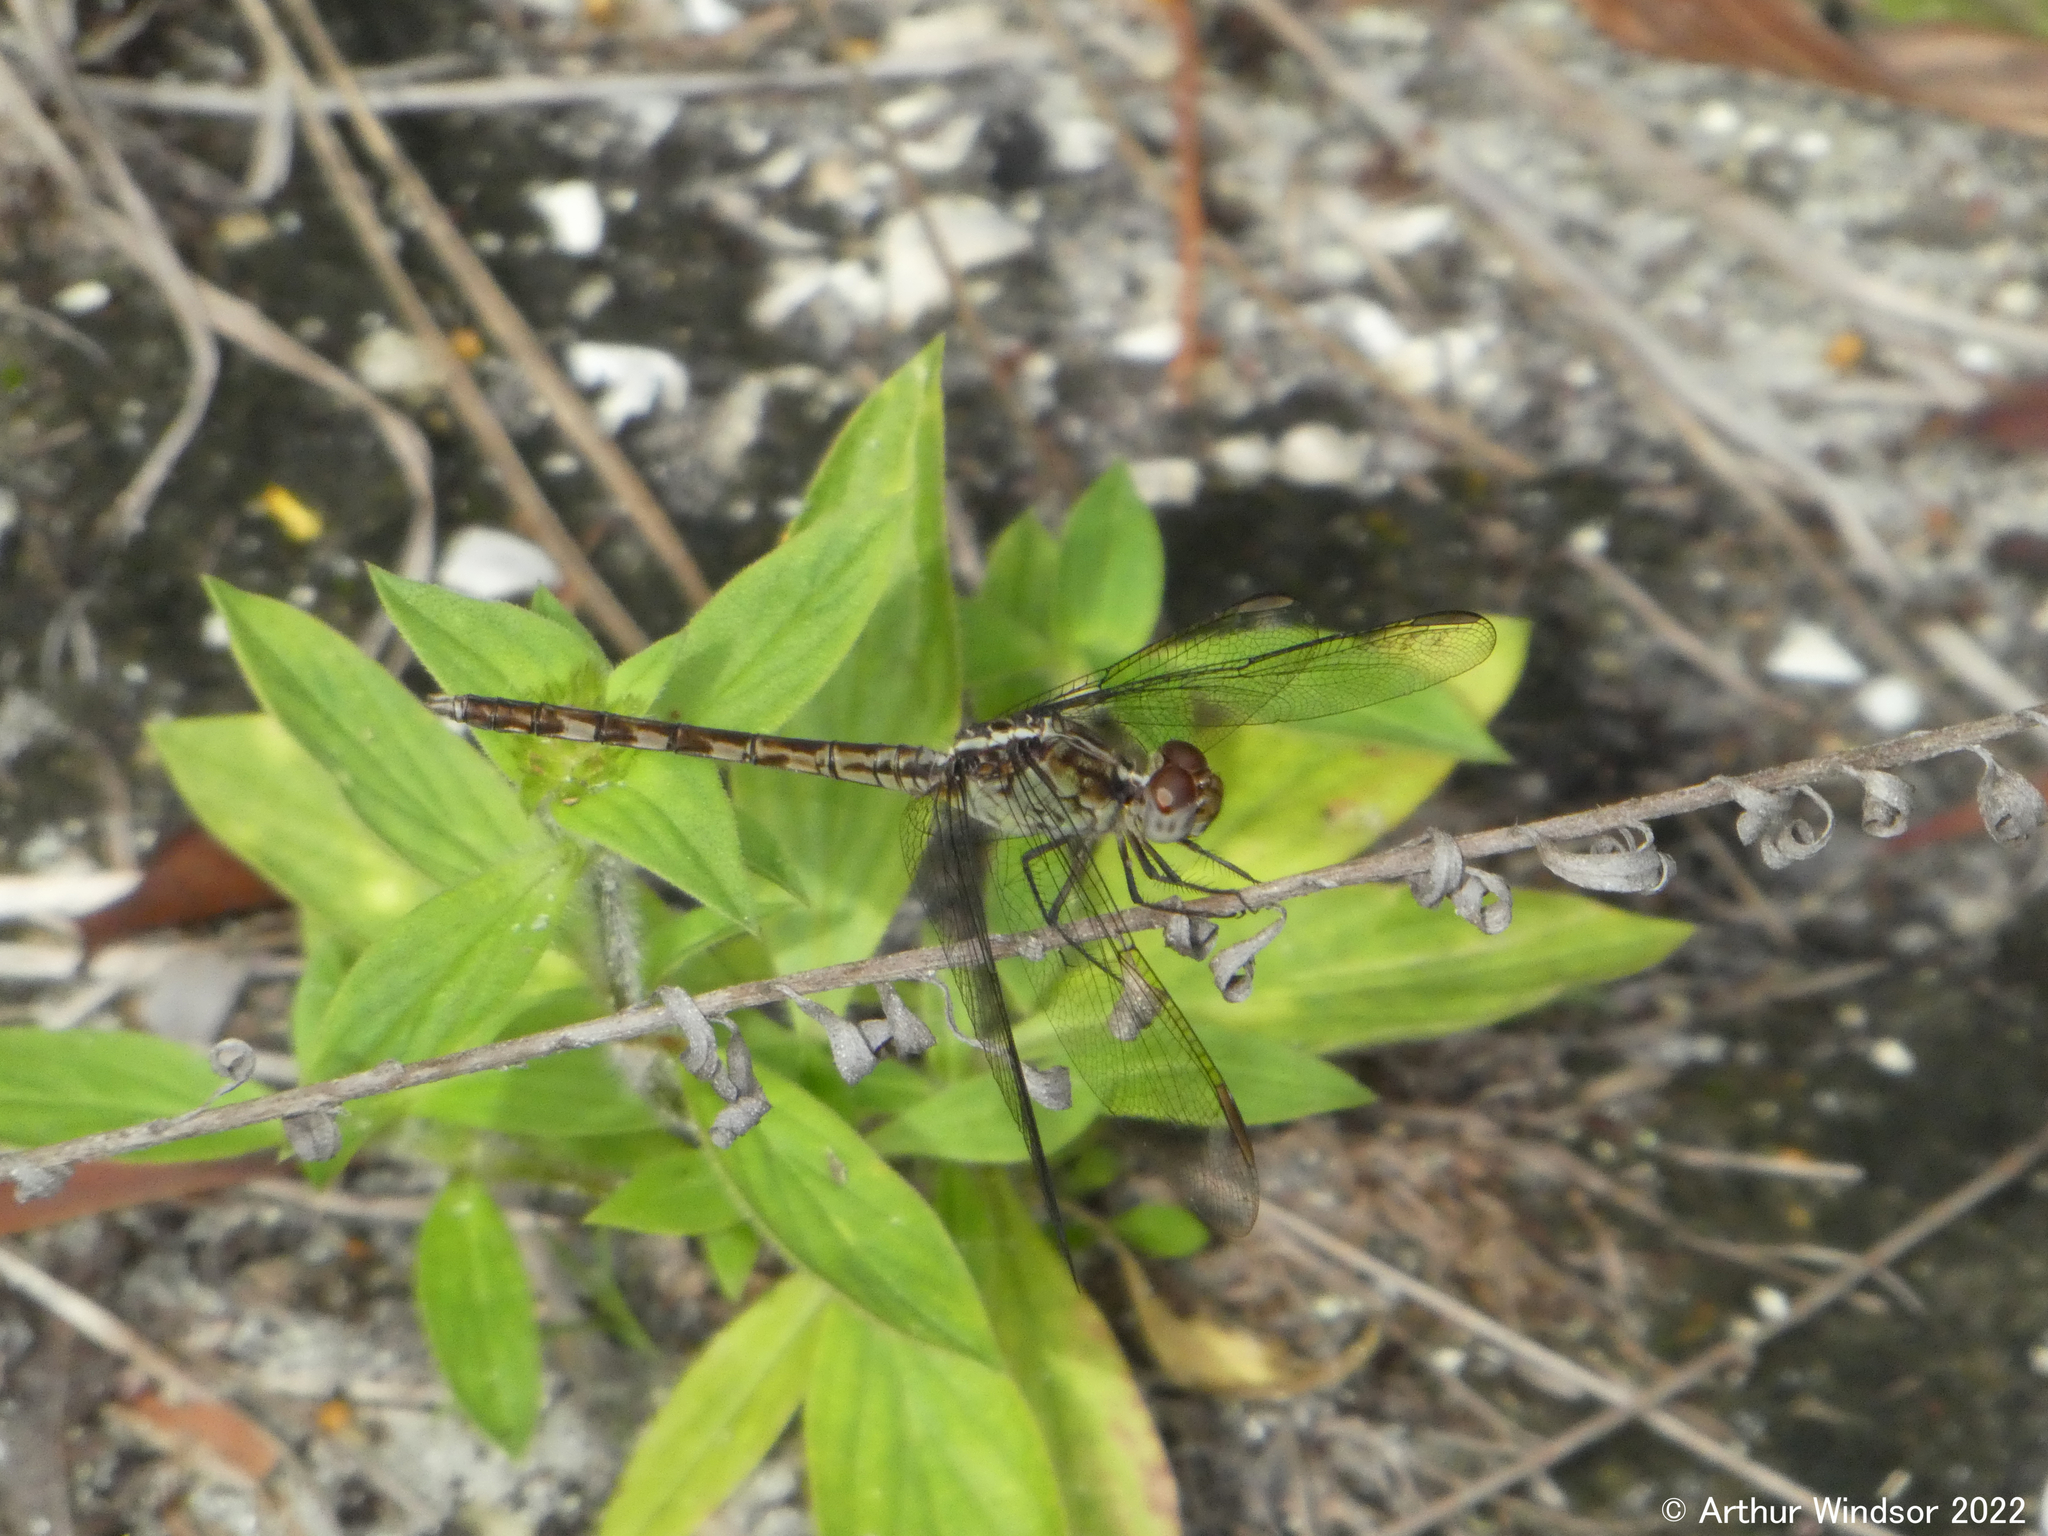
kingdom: Animalia
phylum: Arthropoda
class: Insecta
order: Odonata
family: Libellulidae
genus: Erythrodiplax
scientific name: Erythrodiplax umbrata
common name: Band-winged dragonlet
